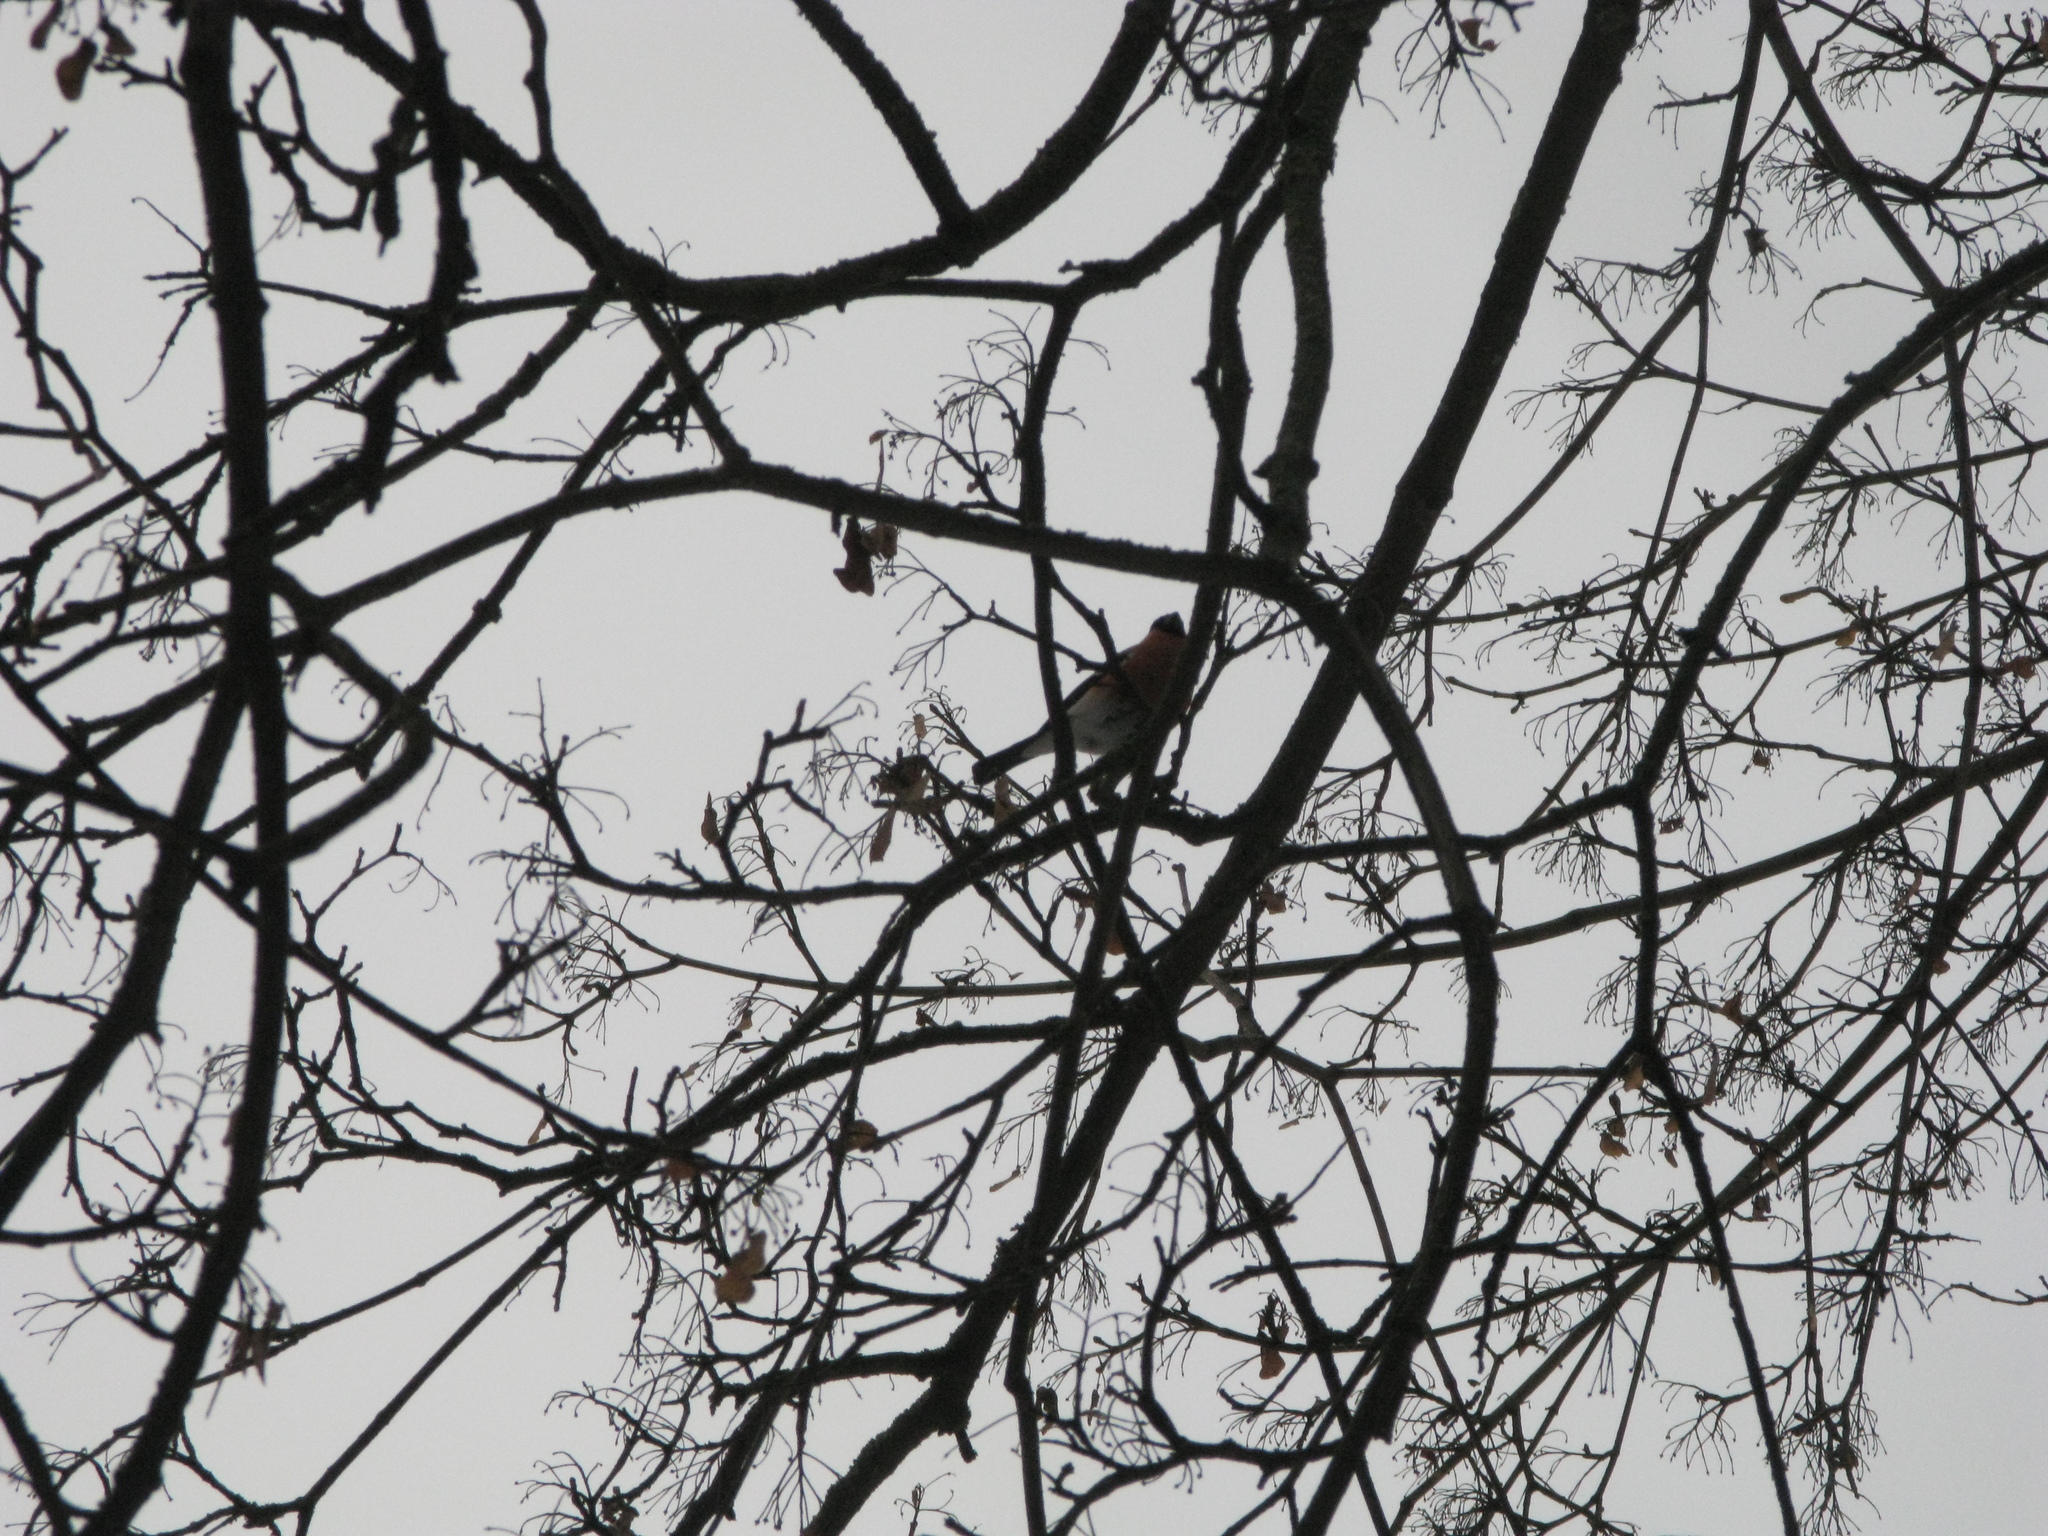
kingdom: Animalia
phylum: Chordata
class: Aves
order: Passeriformes
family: Fringillidae
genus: Pyrrhula
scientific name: Pyrrhula pyrrhula
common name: Eurasian bullfinch
